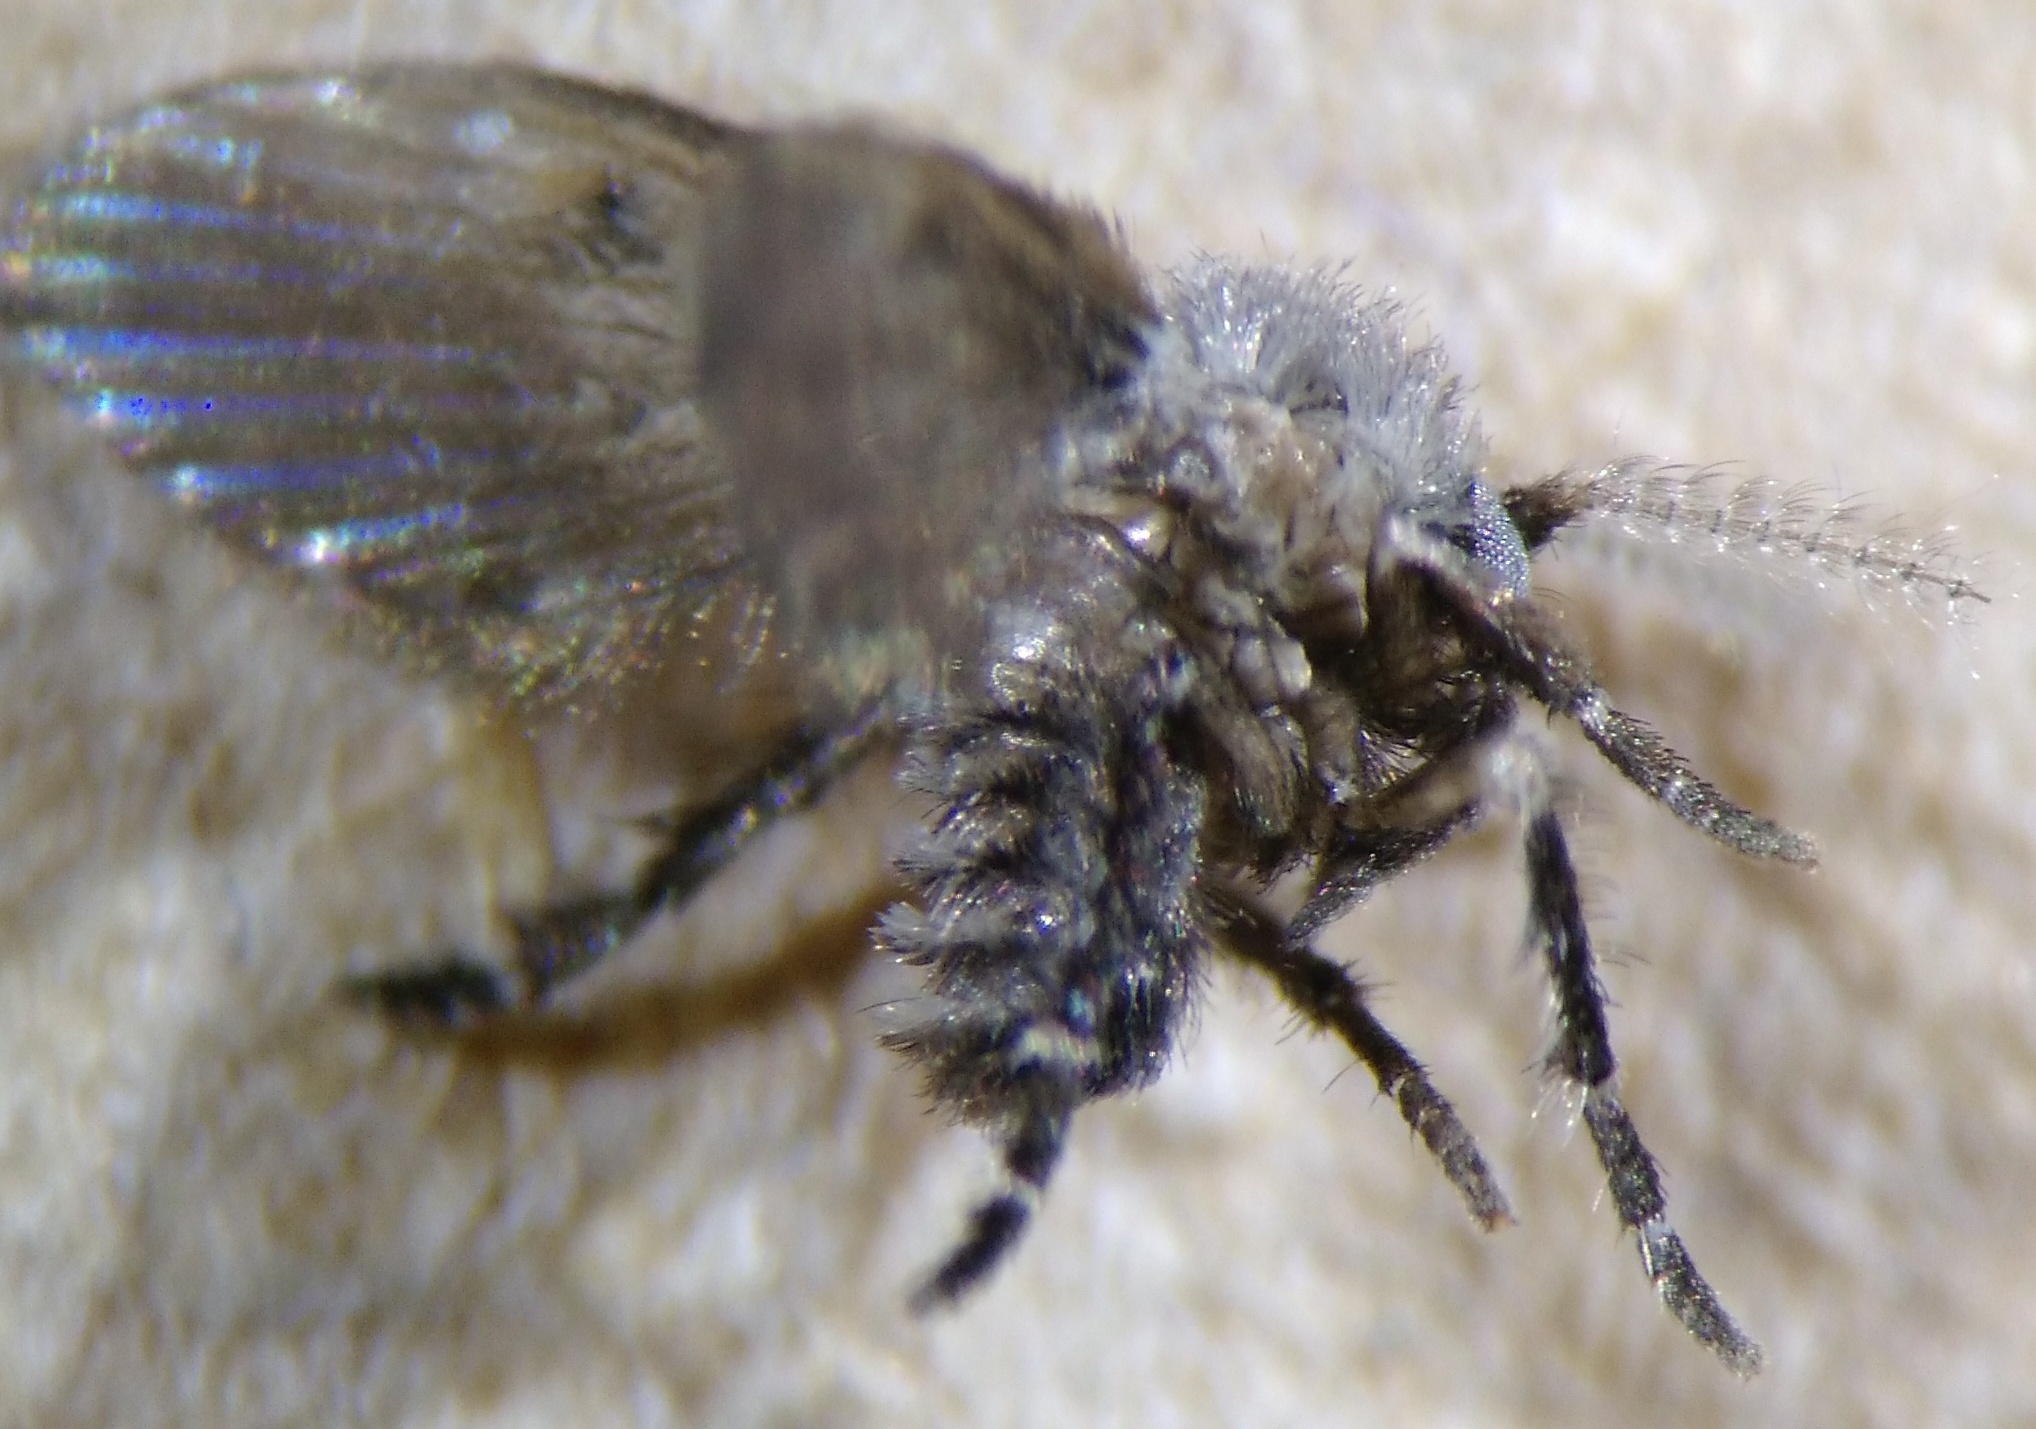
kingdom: Animalia
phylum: Arthropoda
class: Insecta
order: Diptera
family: Psychodidae
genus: Clogmia
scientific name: Clogmia albipunctatus
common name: White-spotted moth fly
